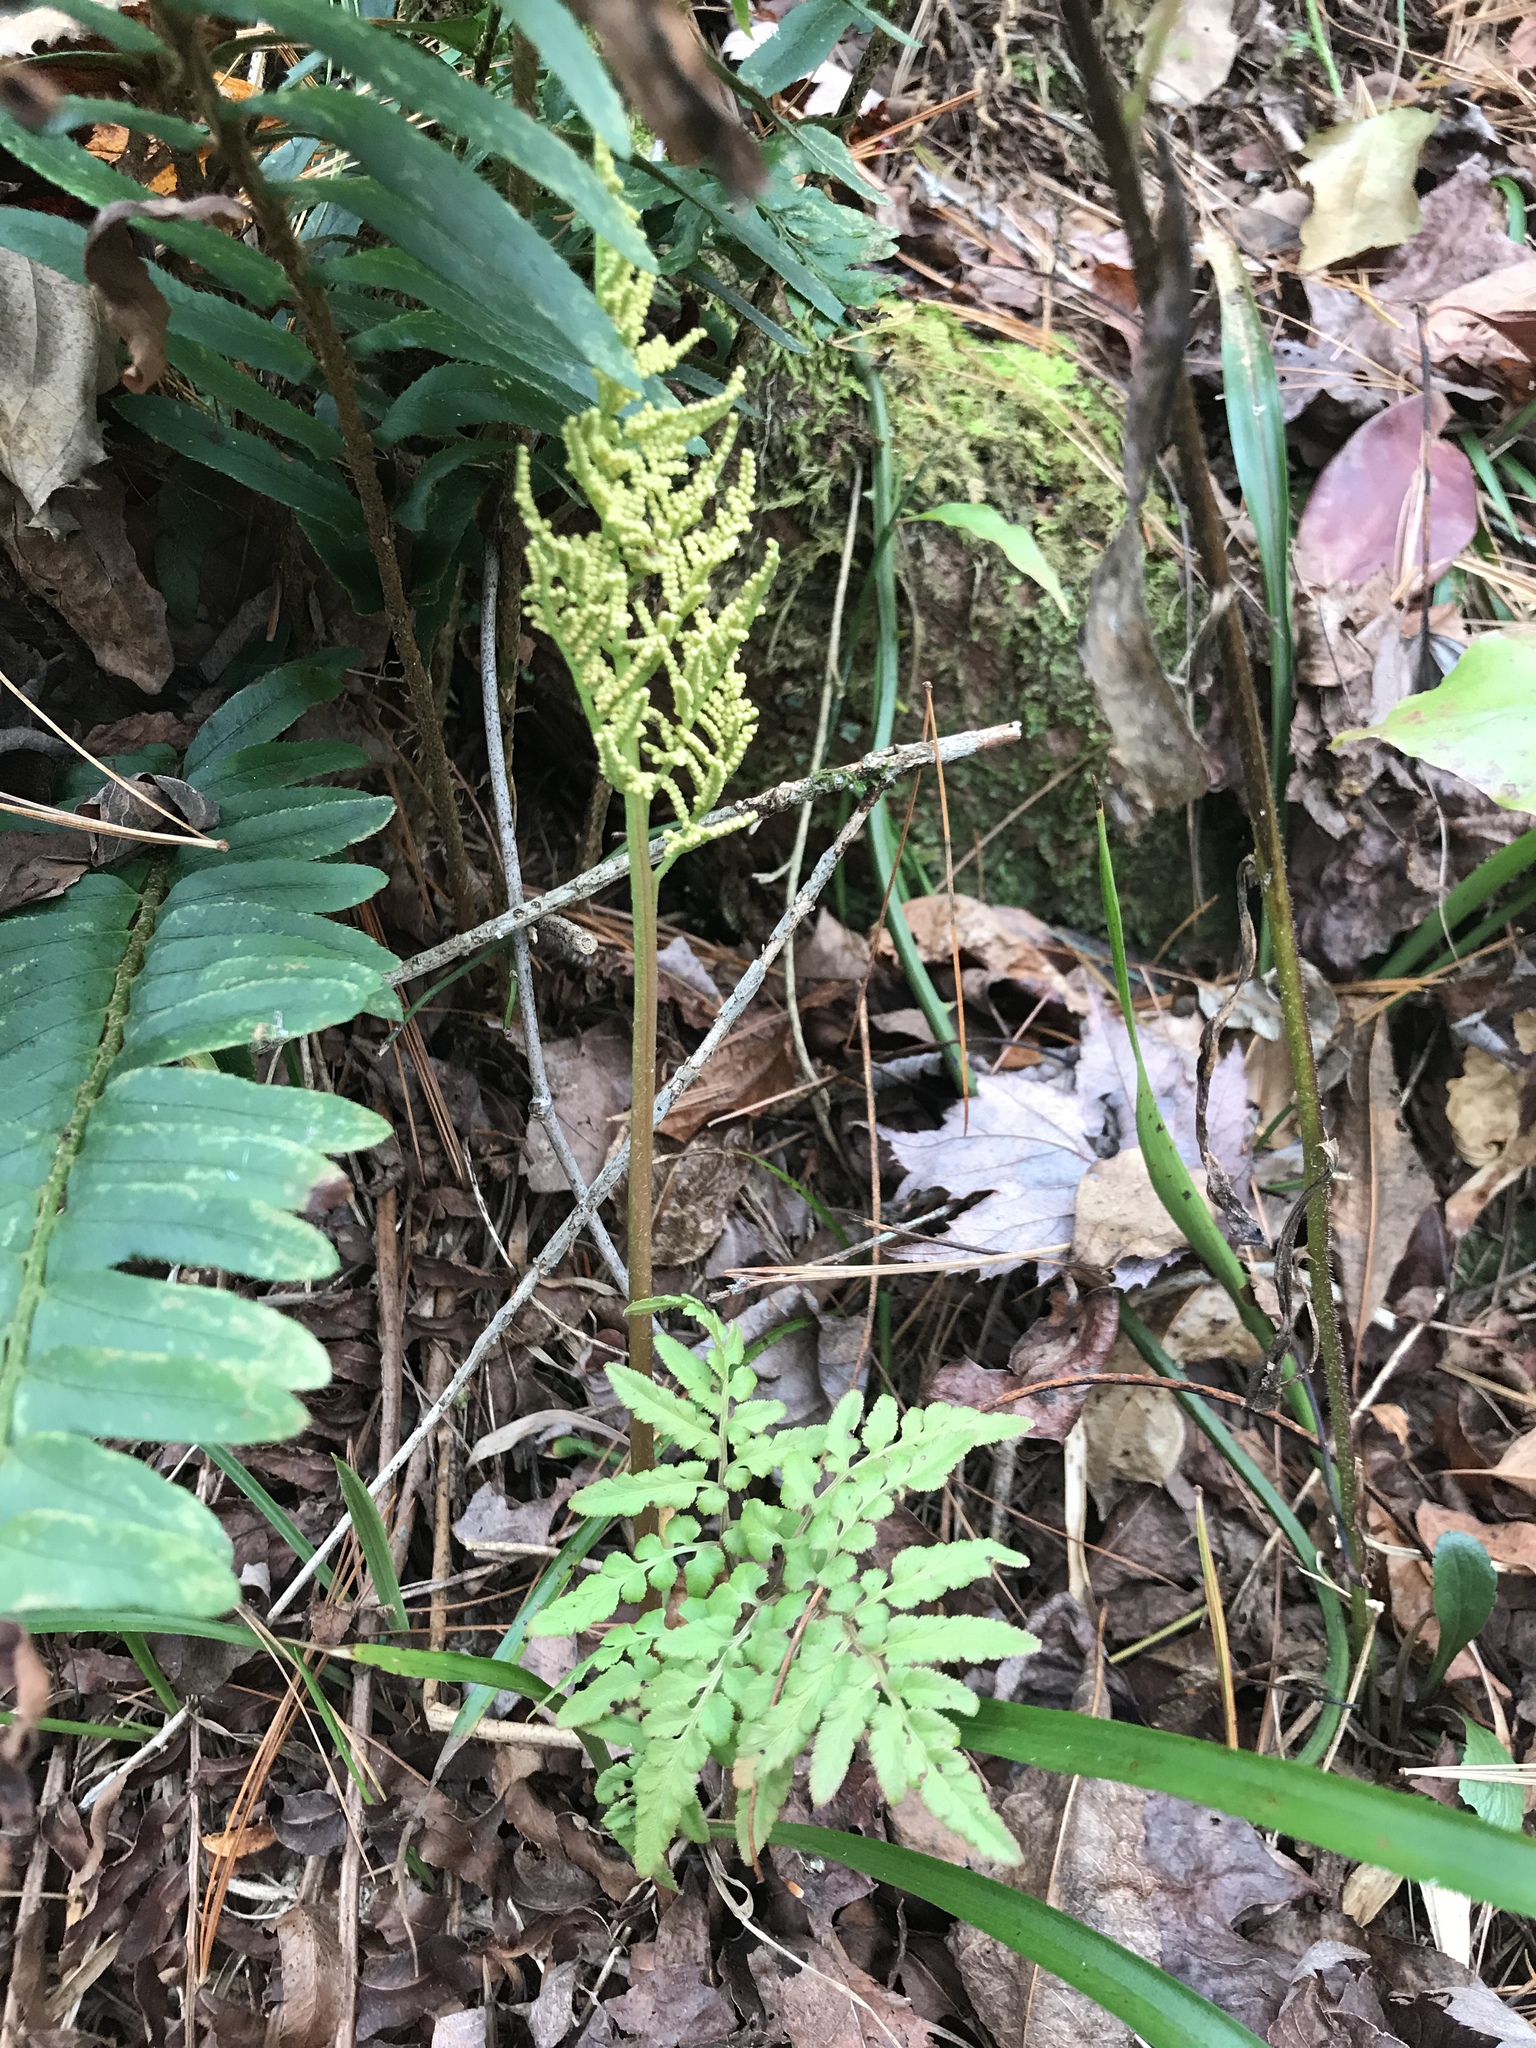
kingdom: Plantae
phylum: Tracheophyta
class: Polypodiopsida
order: Ophioglossales
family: Ophioglossaceae
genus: Sceptridium
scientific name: Sceptridium dissectum
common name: Cut-leaved grapefern
